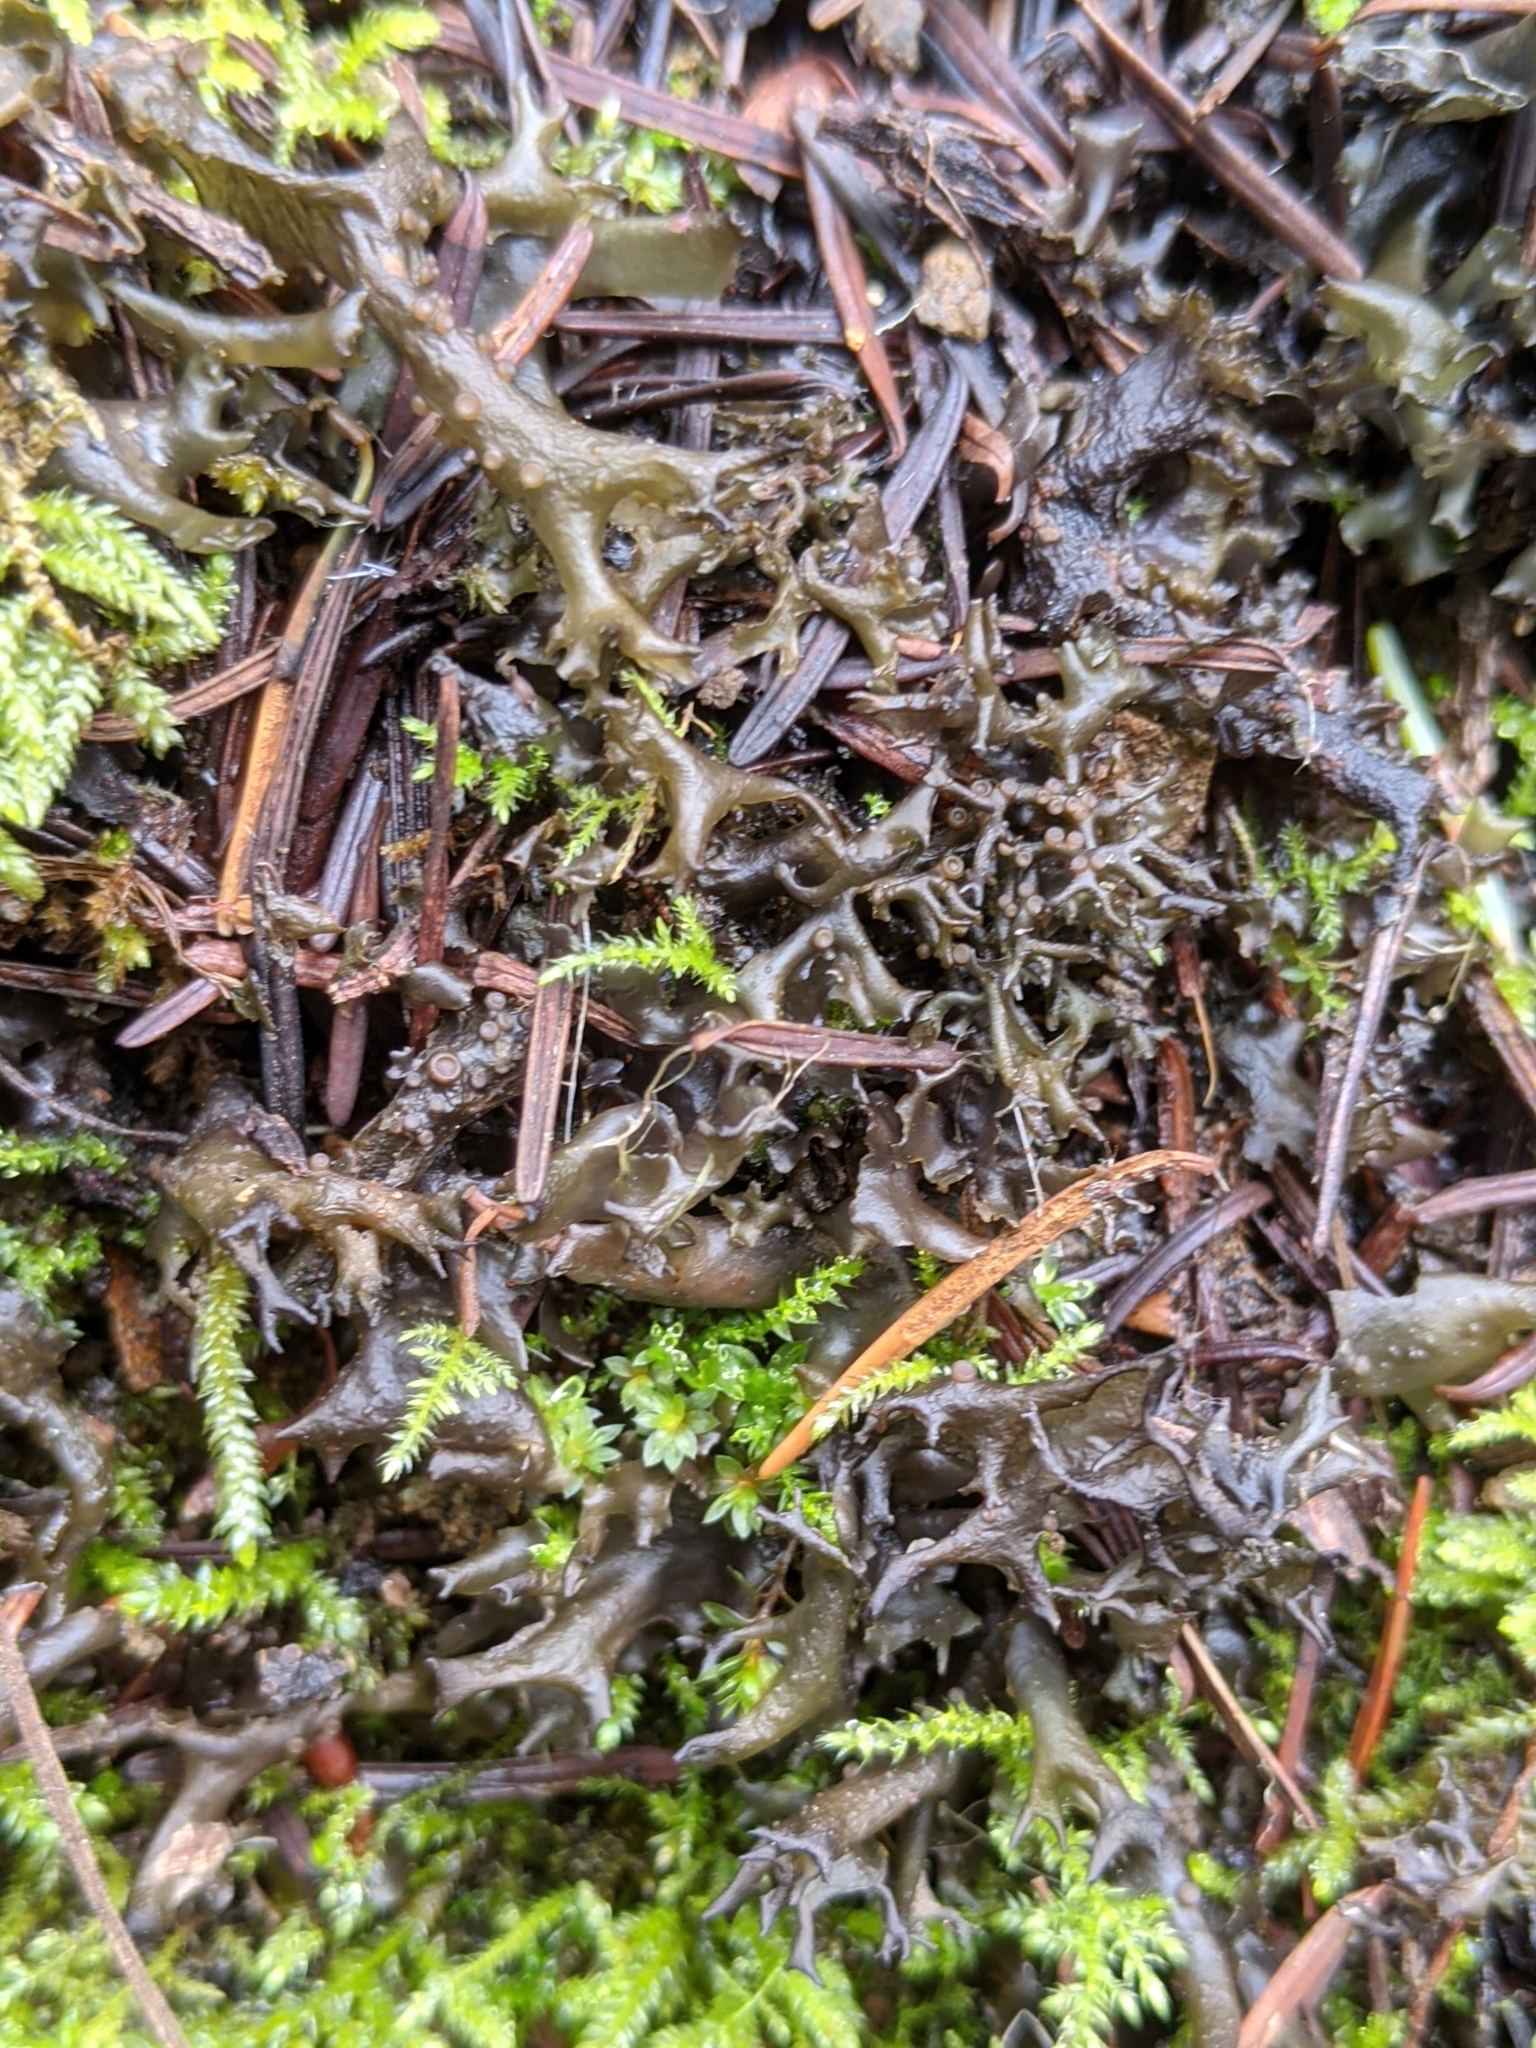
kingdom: Fungi
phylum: Ascomycota
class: Lecanoromycetes
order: Peltigerales
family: Collemataceae
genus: Scytinium
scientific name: Scytinium palmatum
